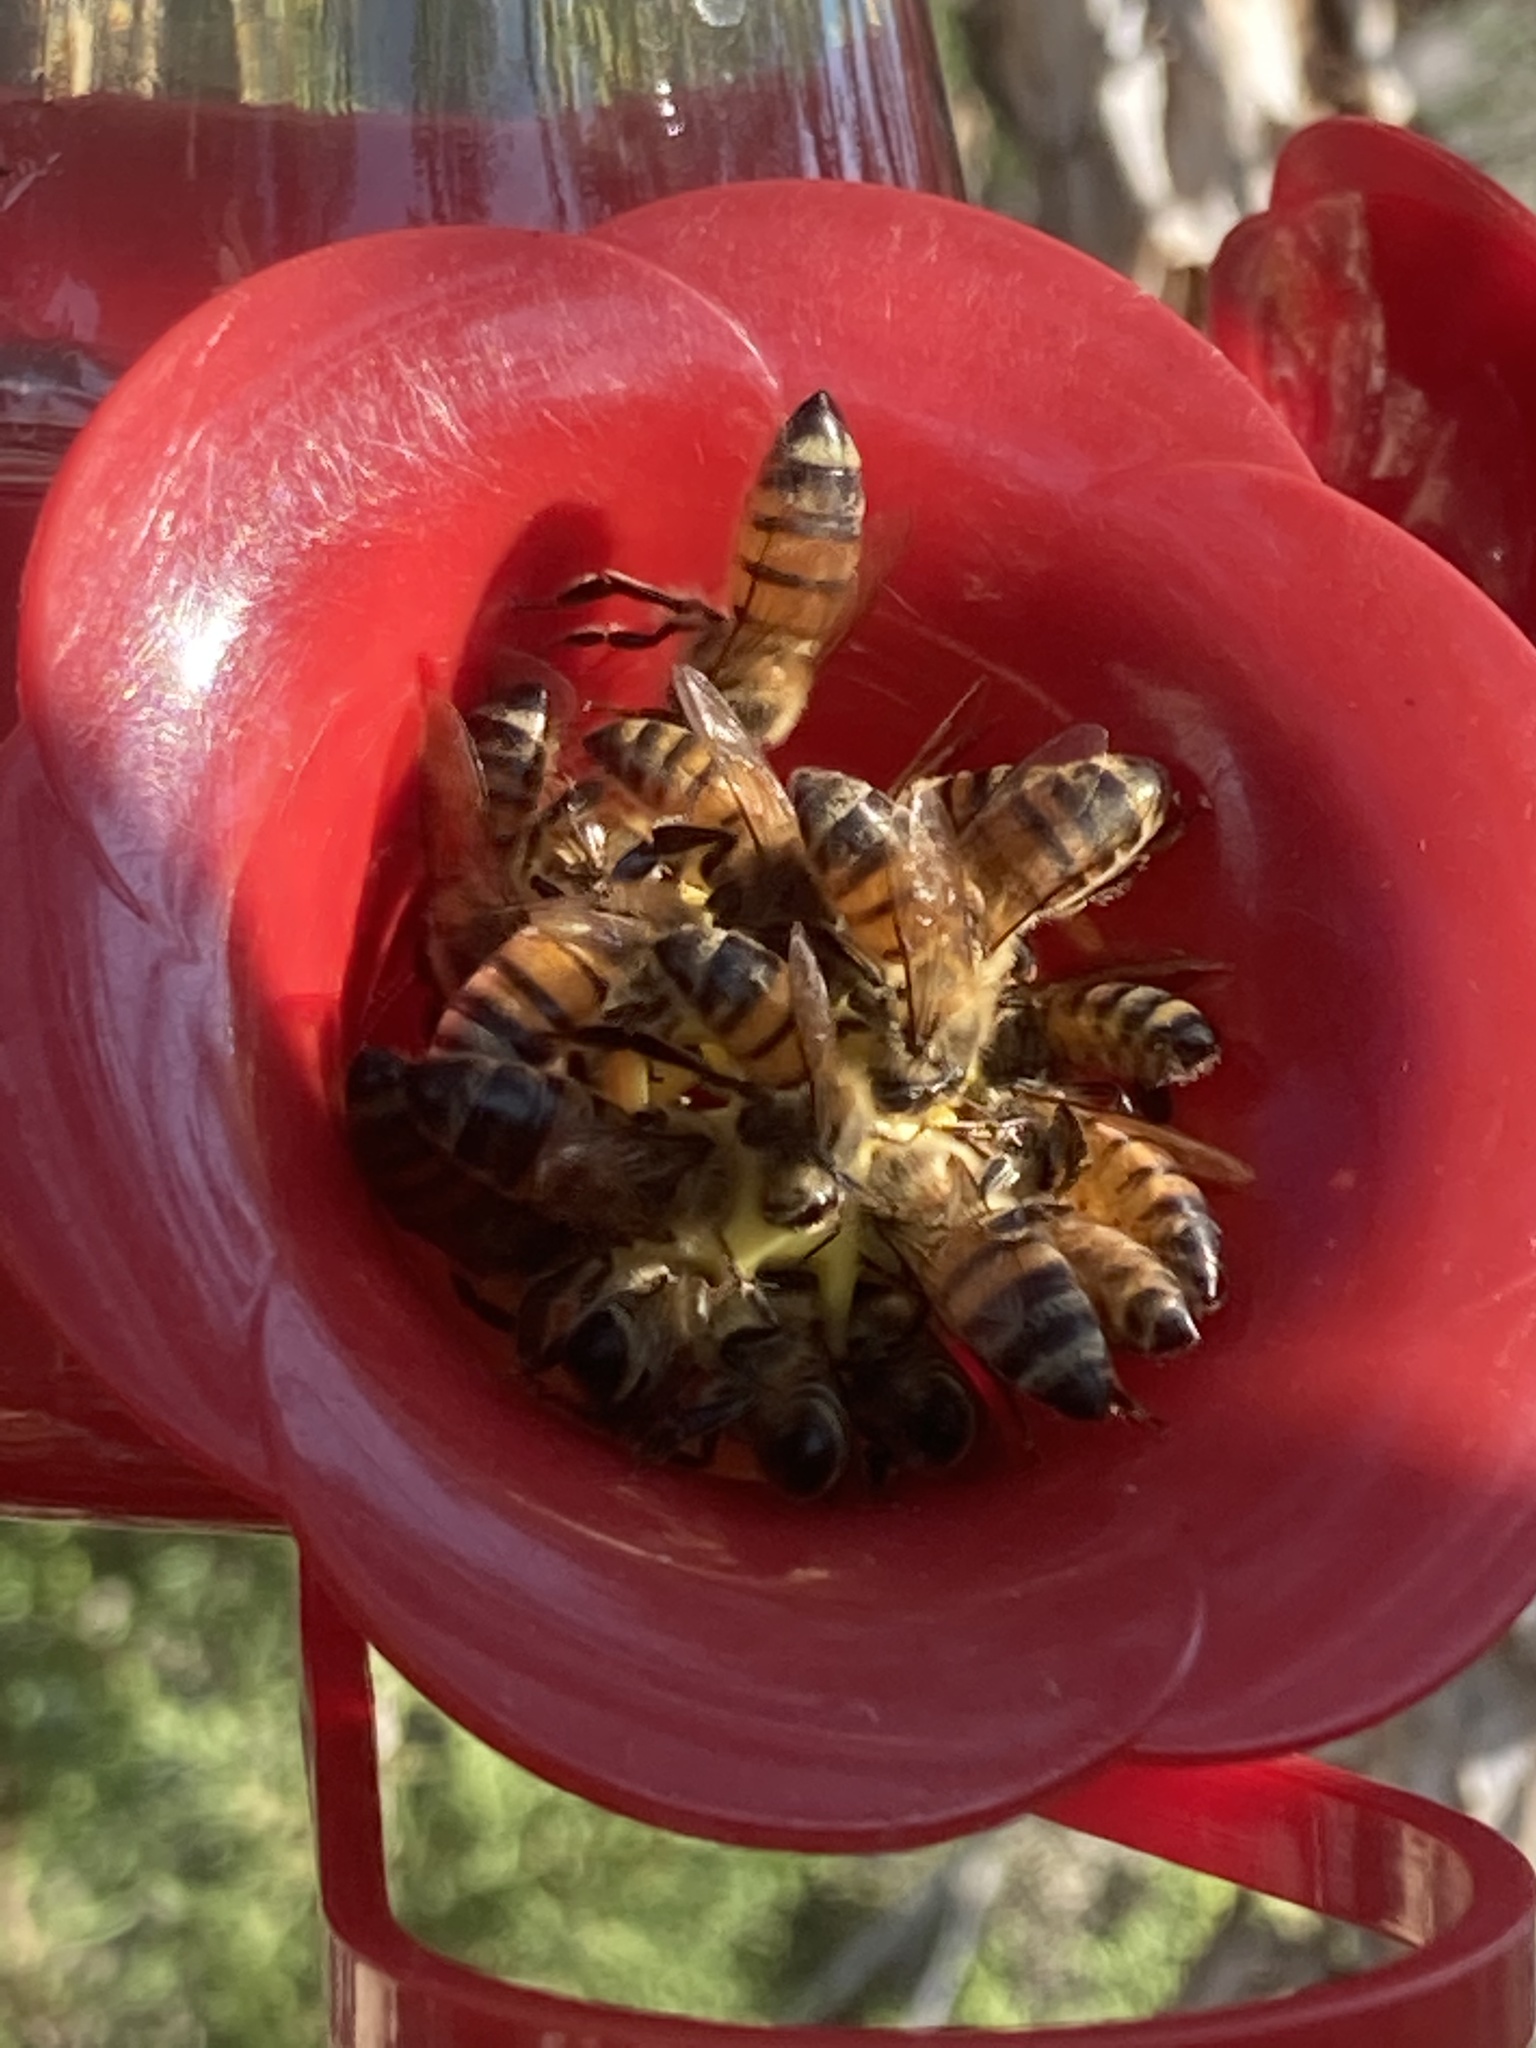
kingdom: Animalia
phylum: Arthropoda
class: Insecta
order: Hymenoptera
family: Apidae
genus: Apis
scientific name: Apis mellifera
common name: Honey bee
